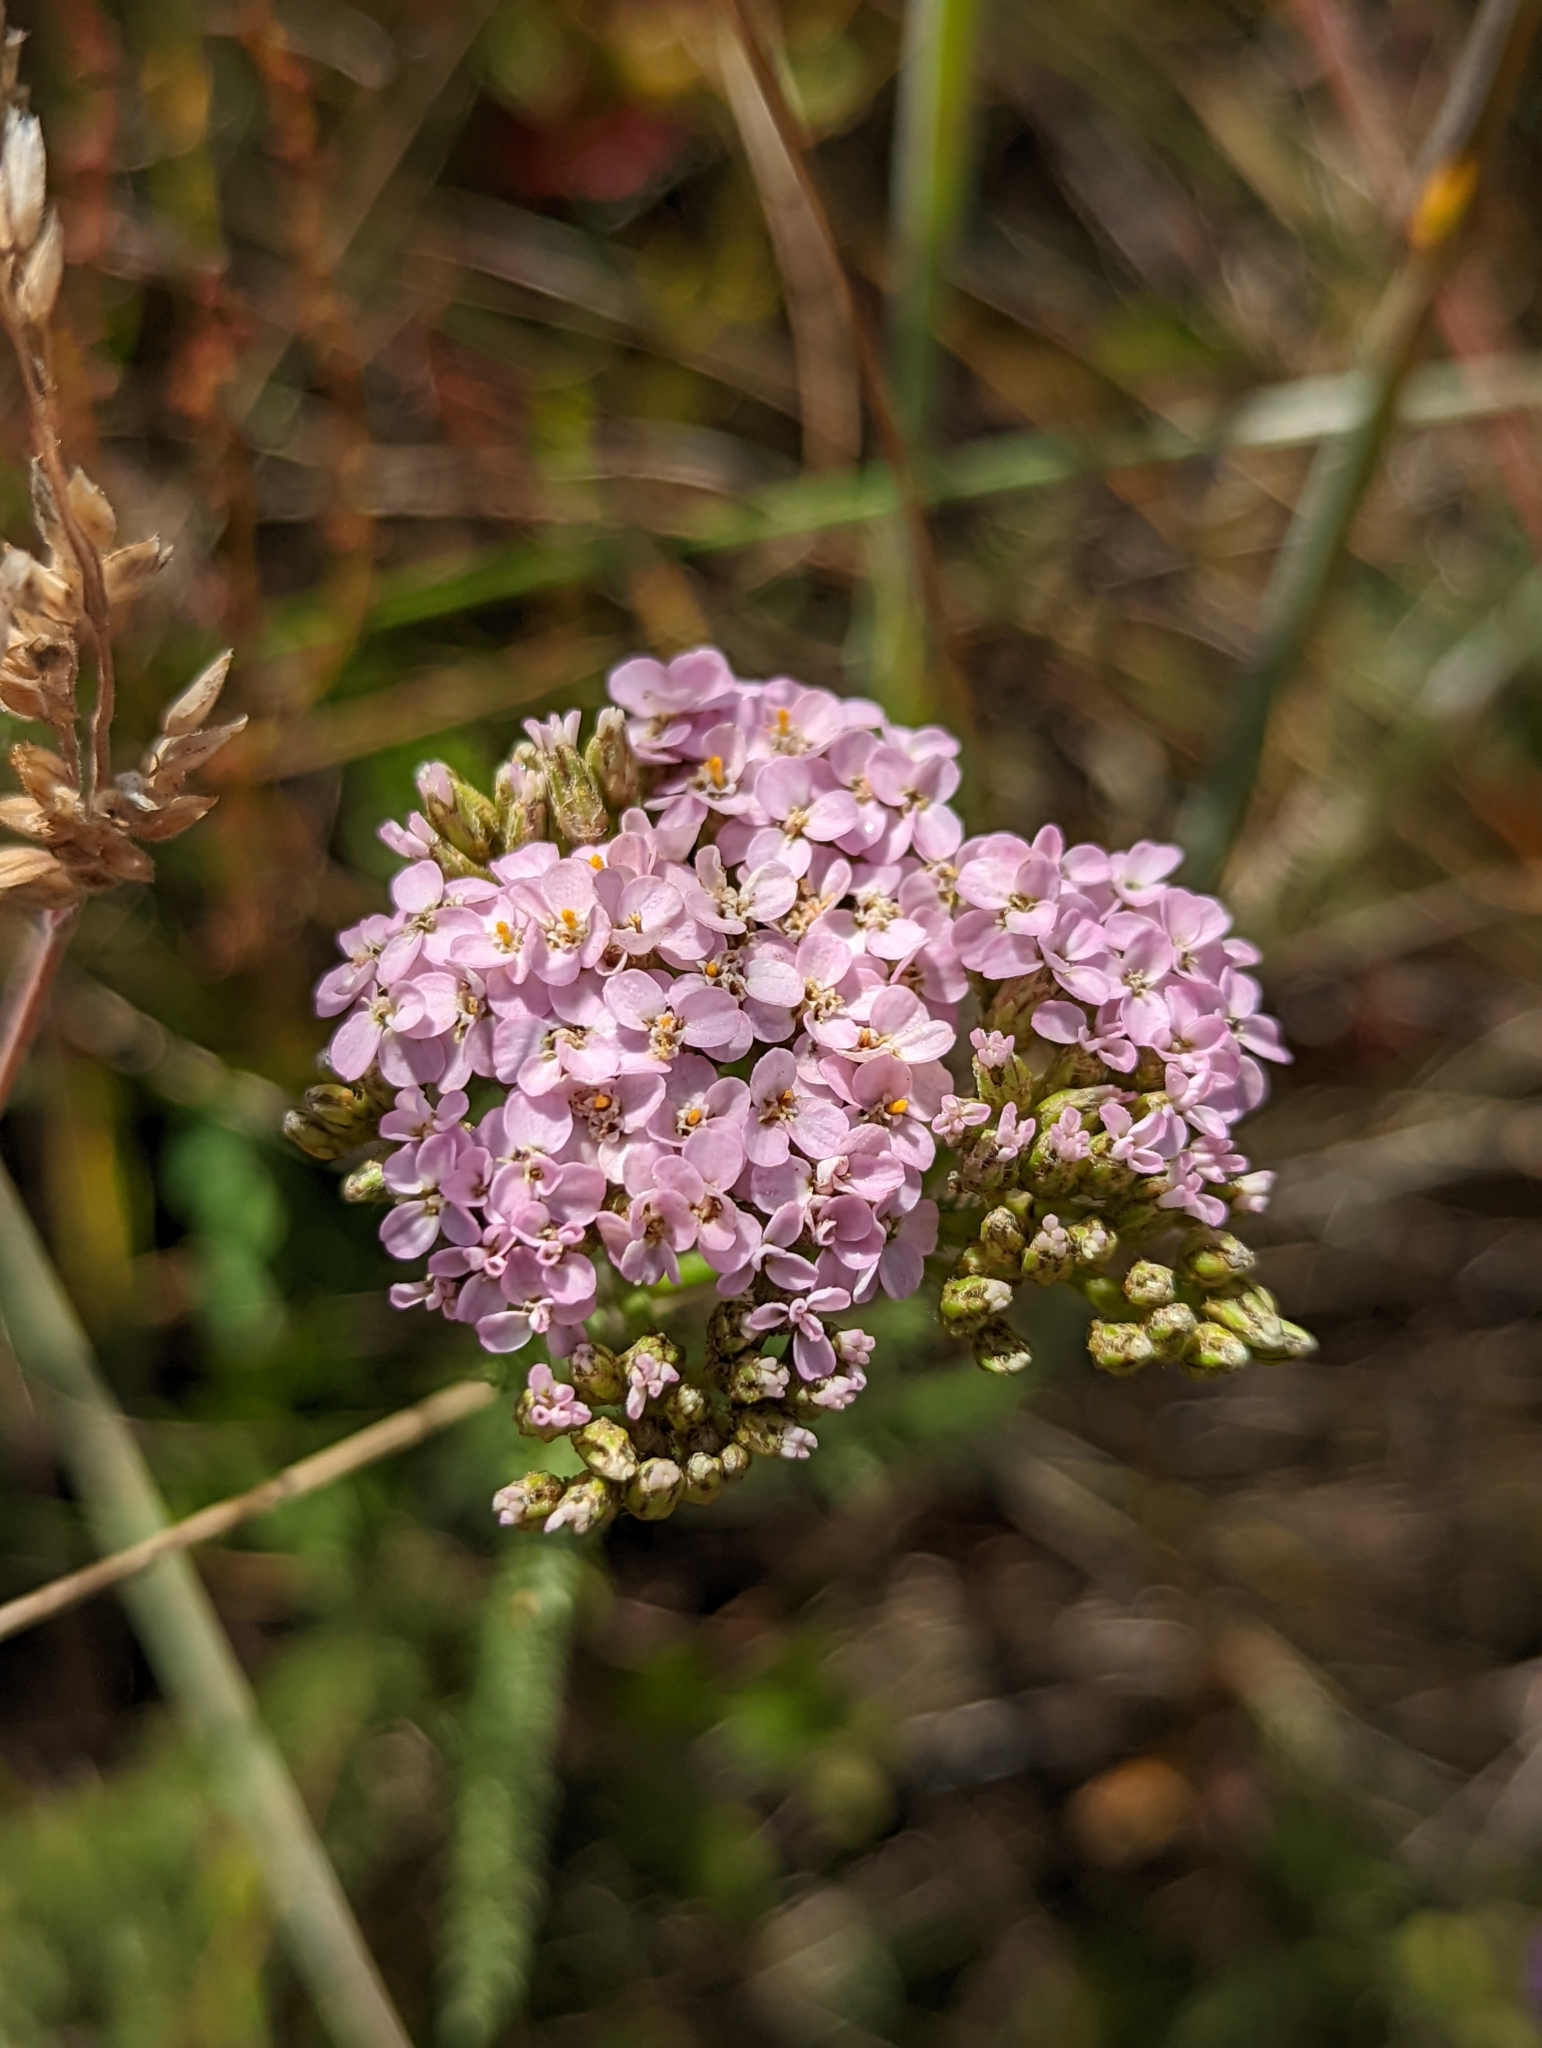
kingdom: Plantae
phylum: Tracheophyta
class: Magnoliopsida
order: Asterales
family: Asteraceae
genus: Achillea
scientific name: Achillea millefolium
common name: Yarrow
